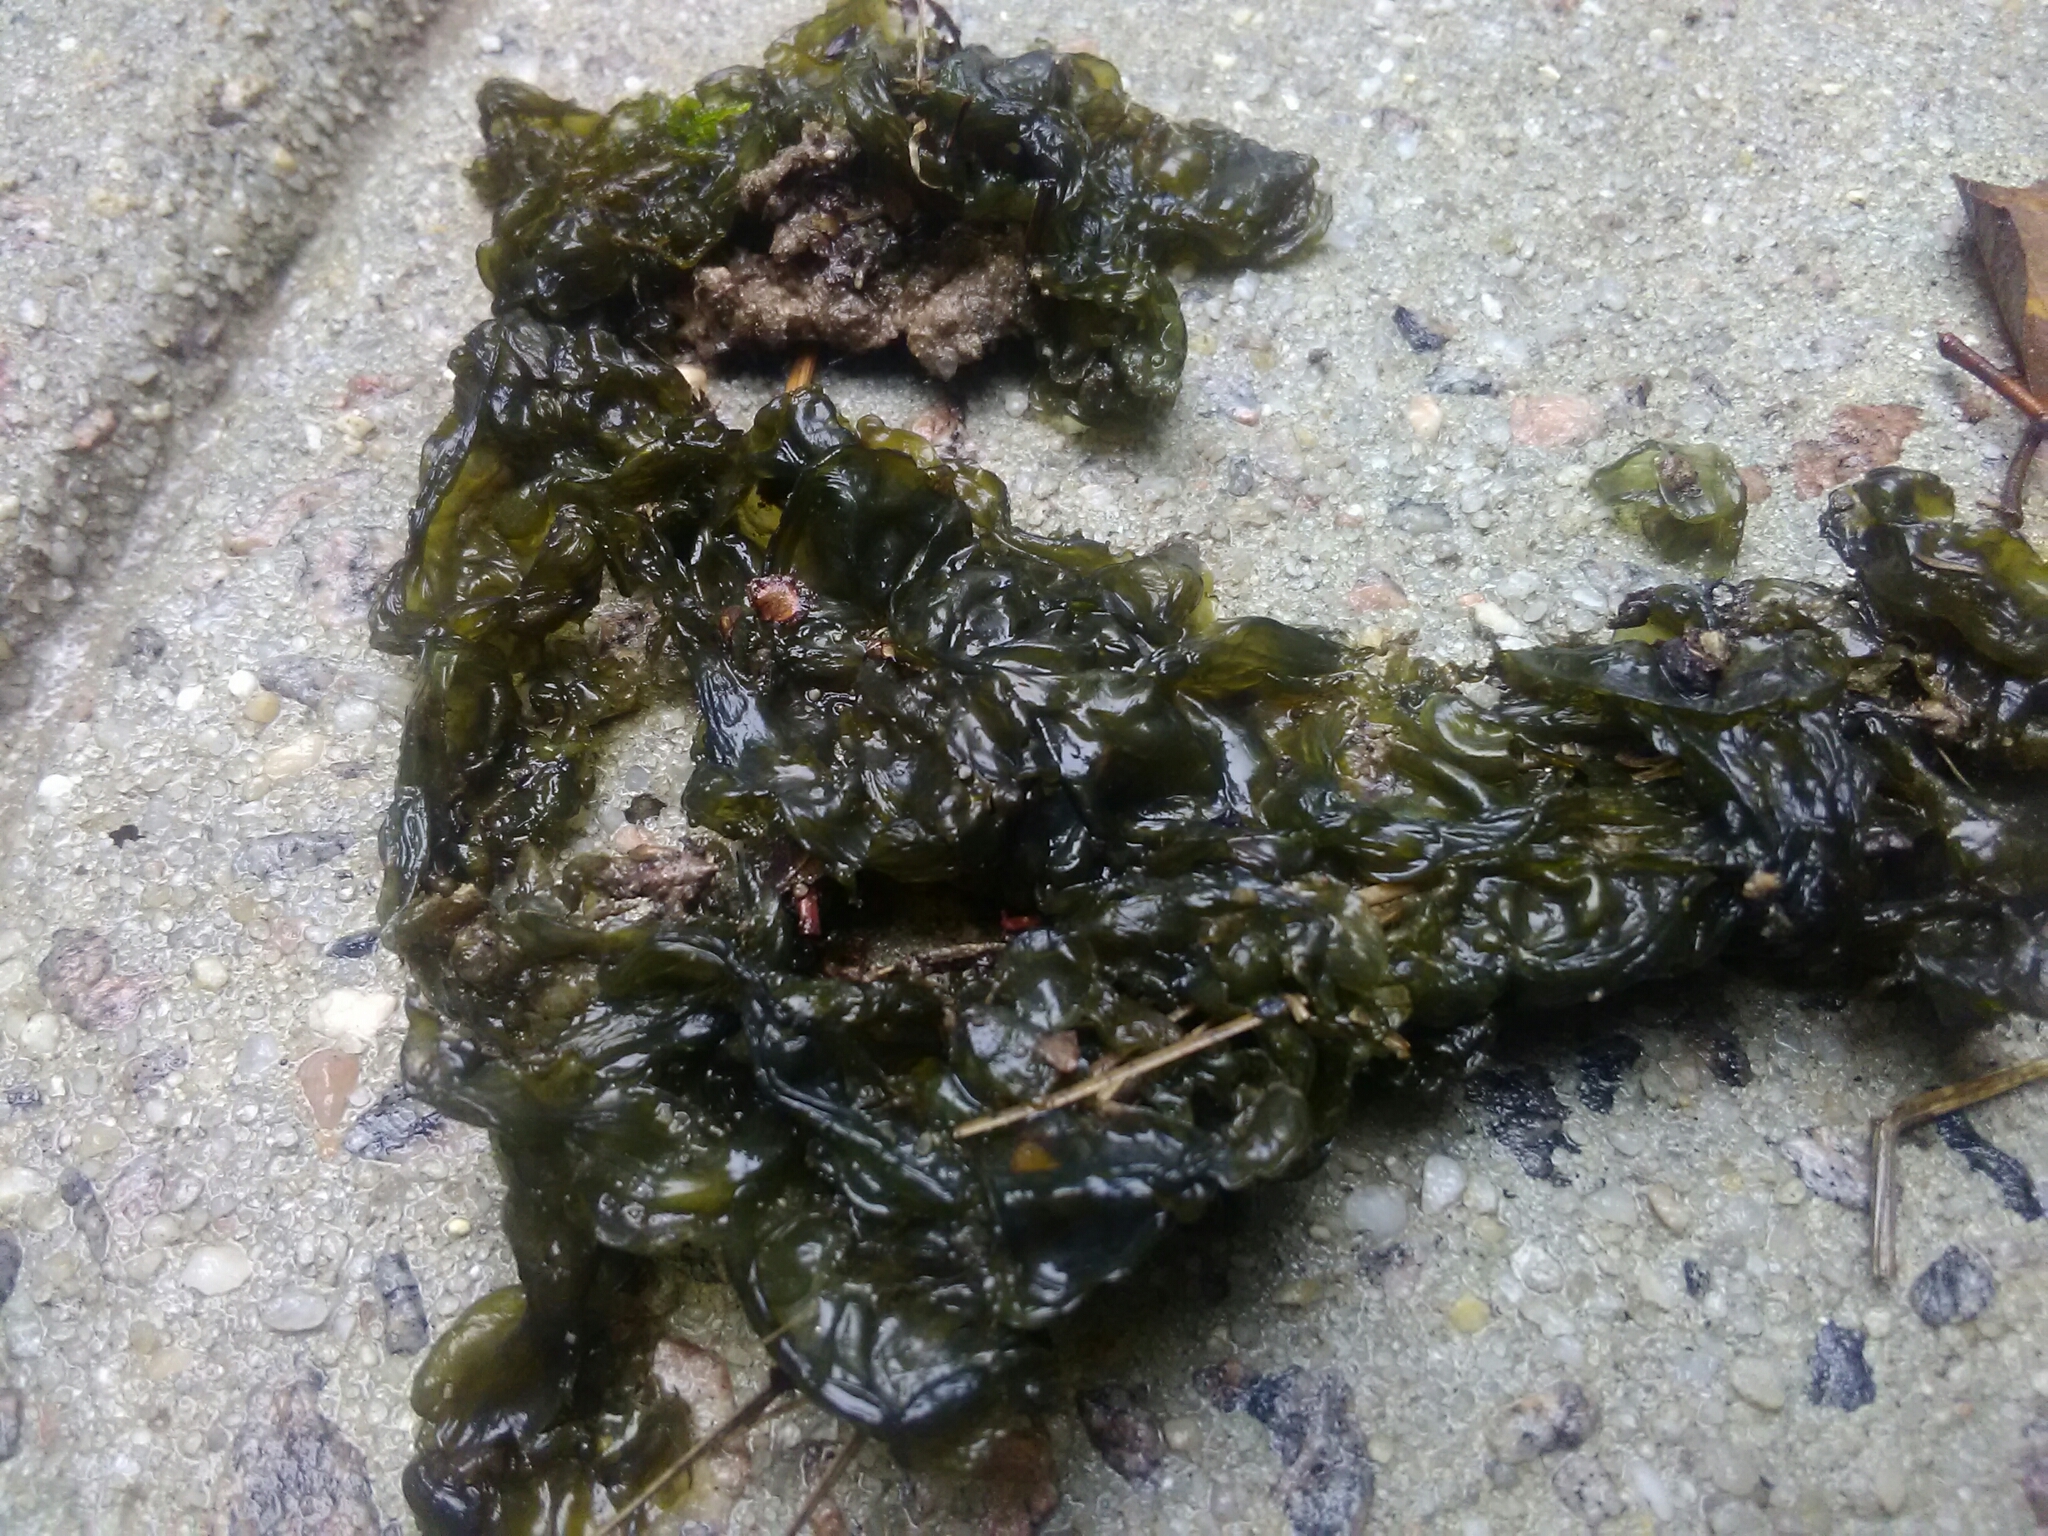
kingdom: Bacteria
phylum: Cyanobacteria
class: Cyanobacteriia
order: Cyanobacteriales
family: Nostocaceae
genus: Nostoc
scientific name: Nostoc commune
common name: Star jelly
